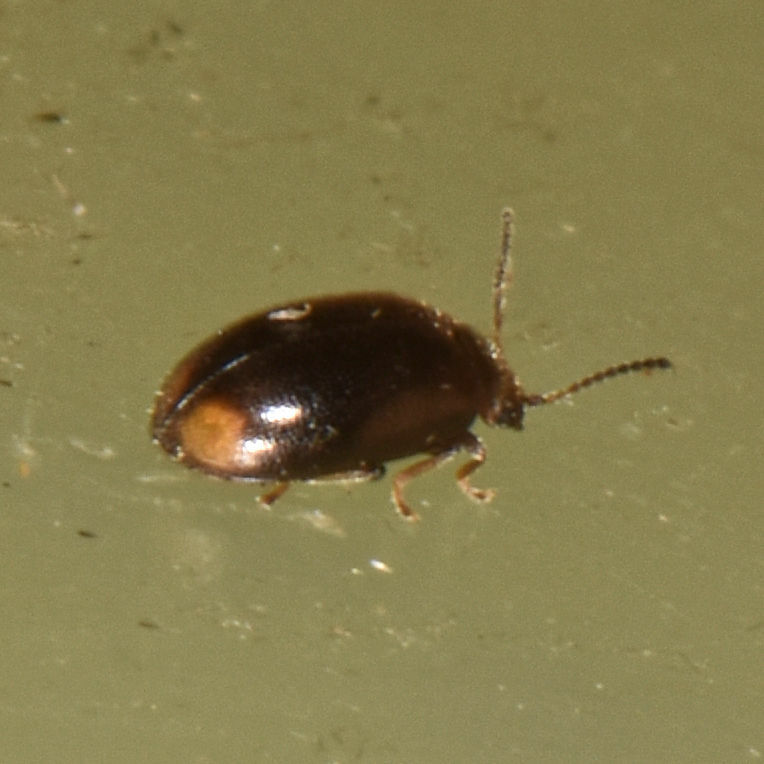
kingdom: Animalia
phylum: Arthropoda
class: Insecta
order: Coleoptera
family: Scirtidae
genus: Contacyphon
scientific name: Contacyphon neopadi
